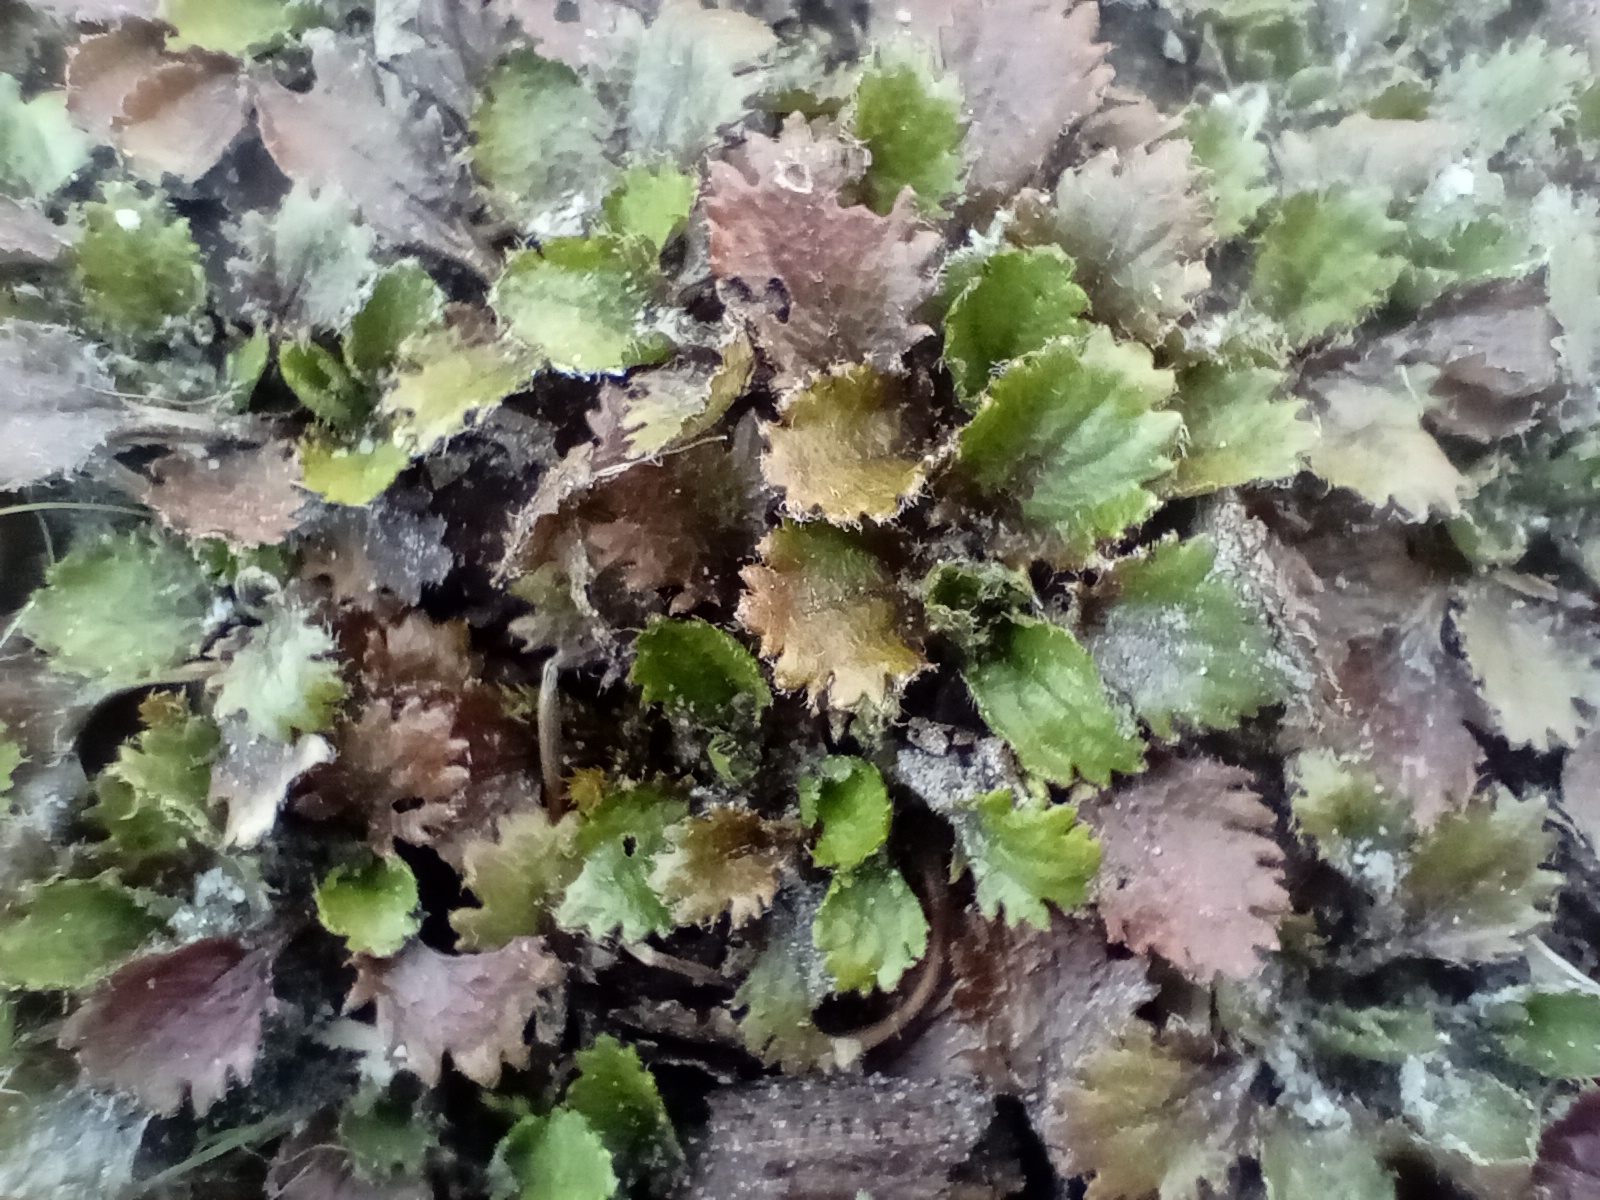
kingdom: Plantae
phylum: Tracheophyta
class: Magnoliopsida
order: Gunnerales
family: Gunneraceae
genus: Gunnera
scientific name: Gunnera dentata
